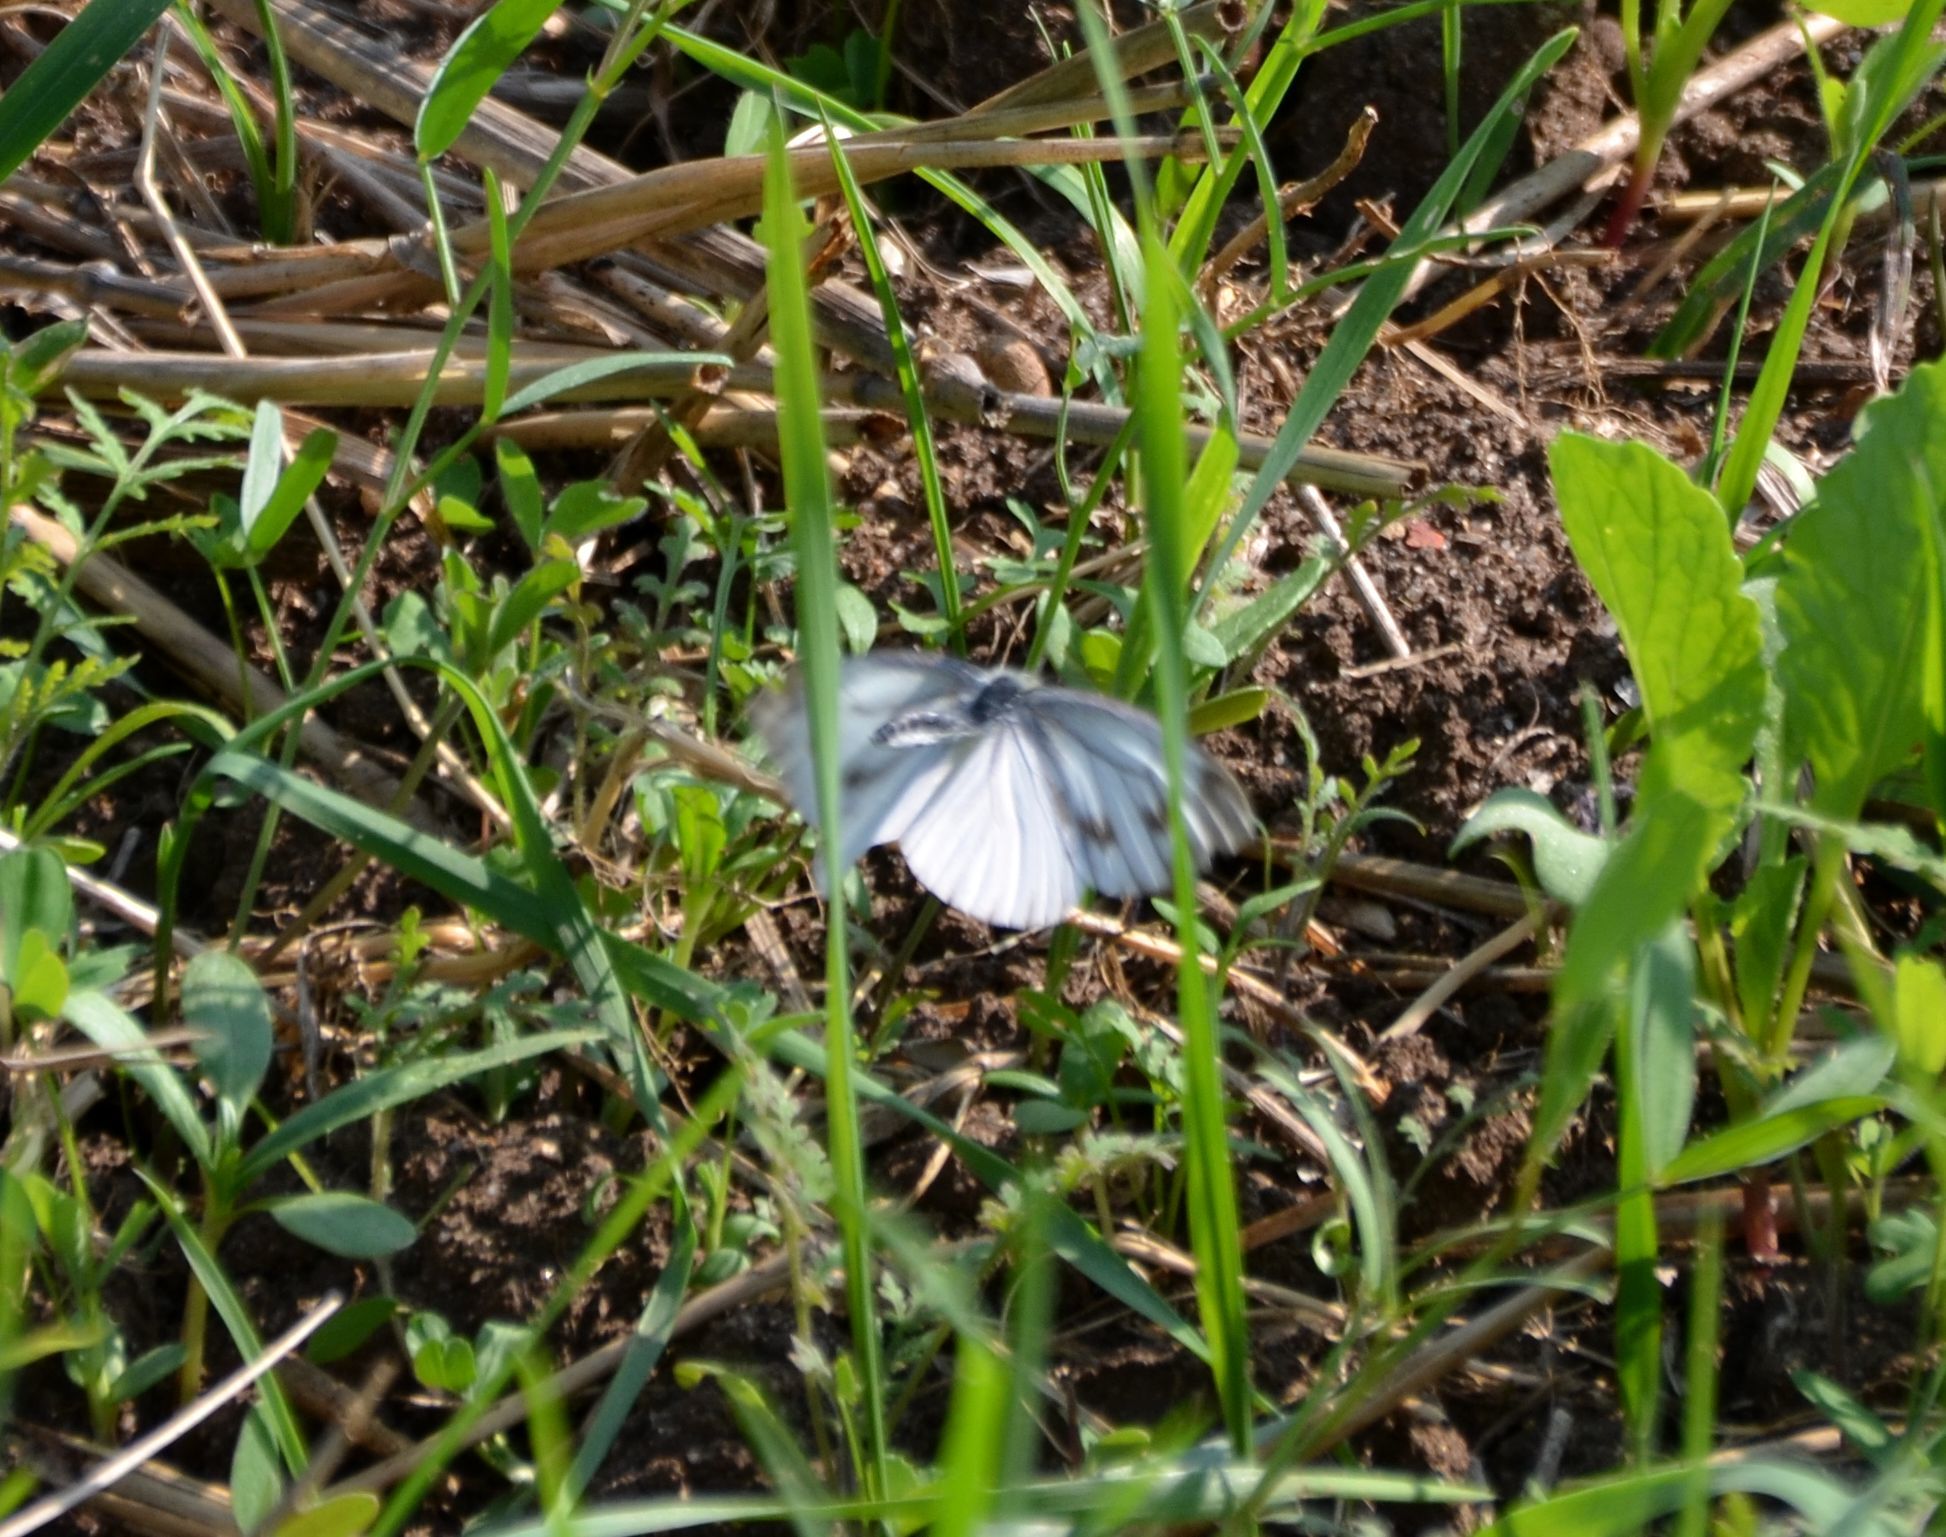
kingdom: Animalia
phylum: Arthropoda
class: Insecta
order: Lepidoptera
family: Pieridae
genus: Pieris
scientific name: Pieris napi
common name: Green-veined white
